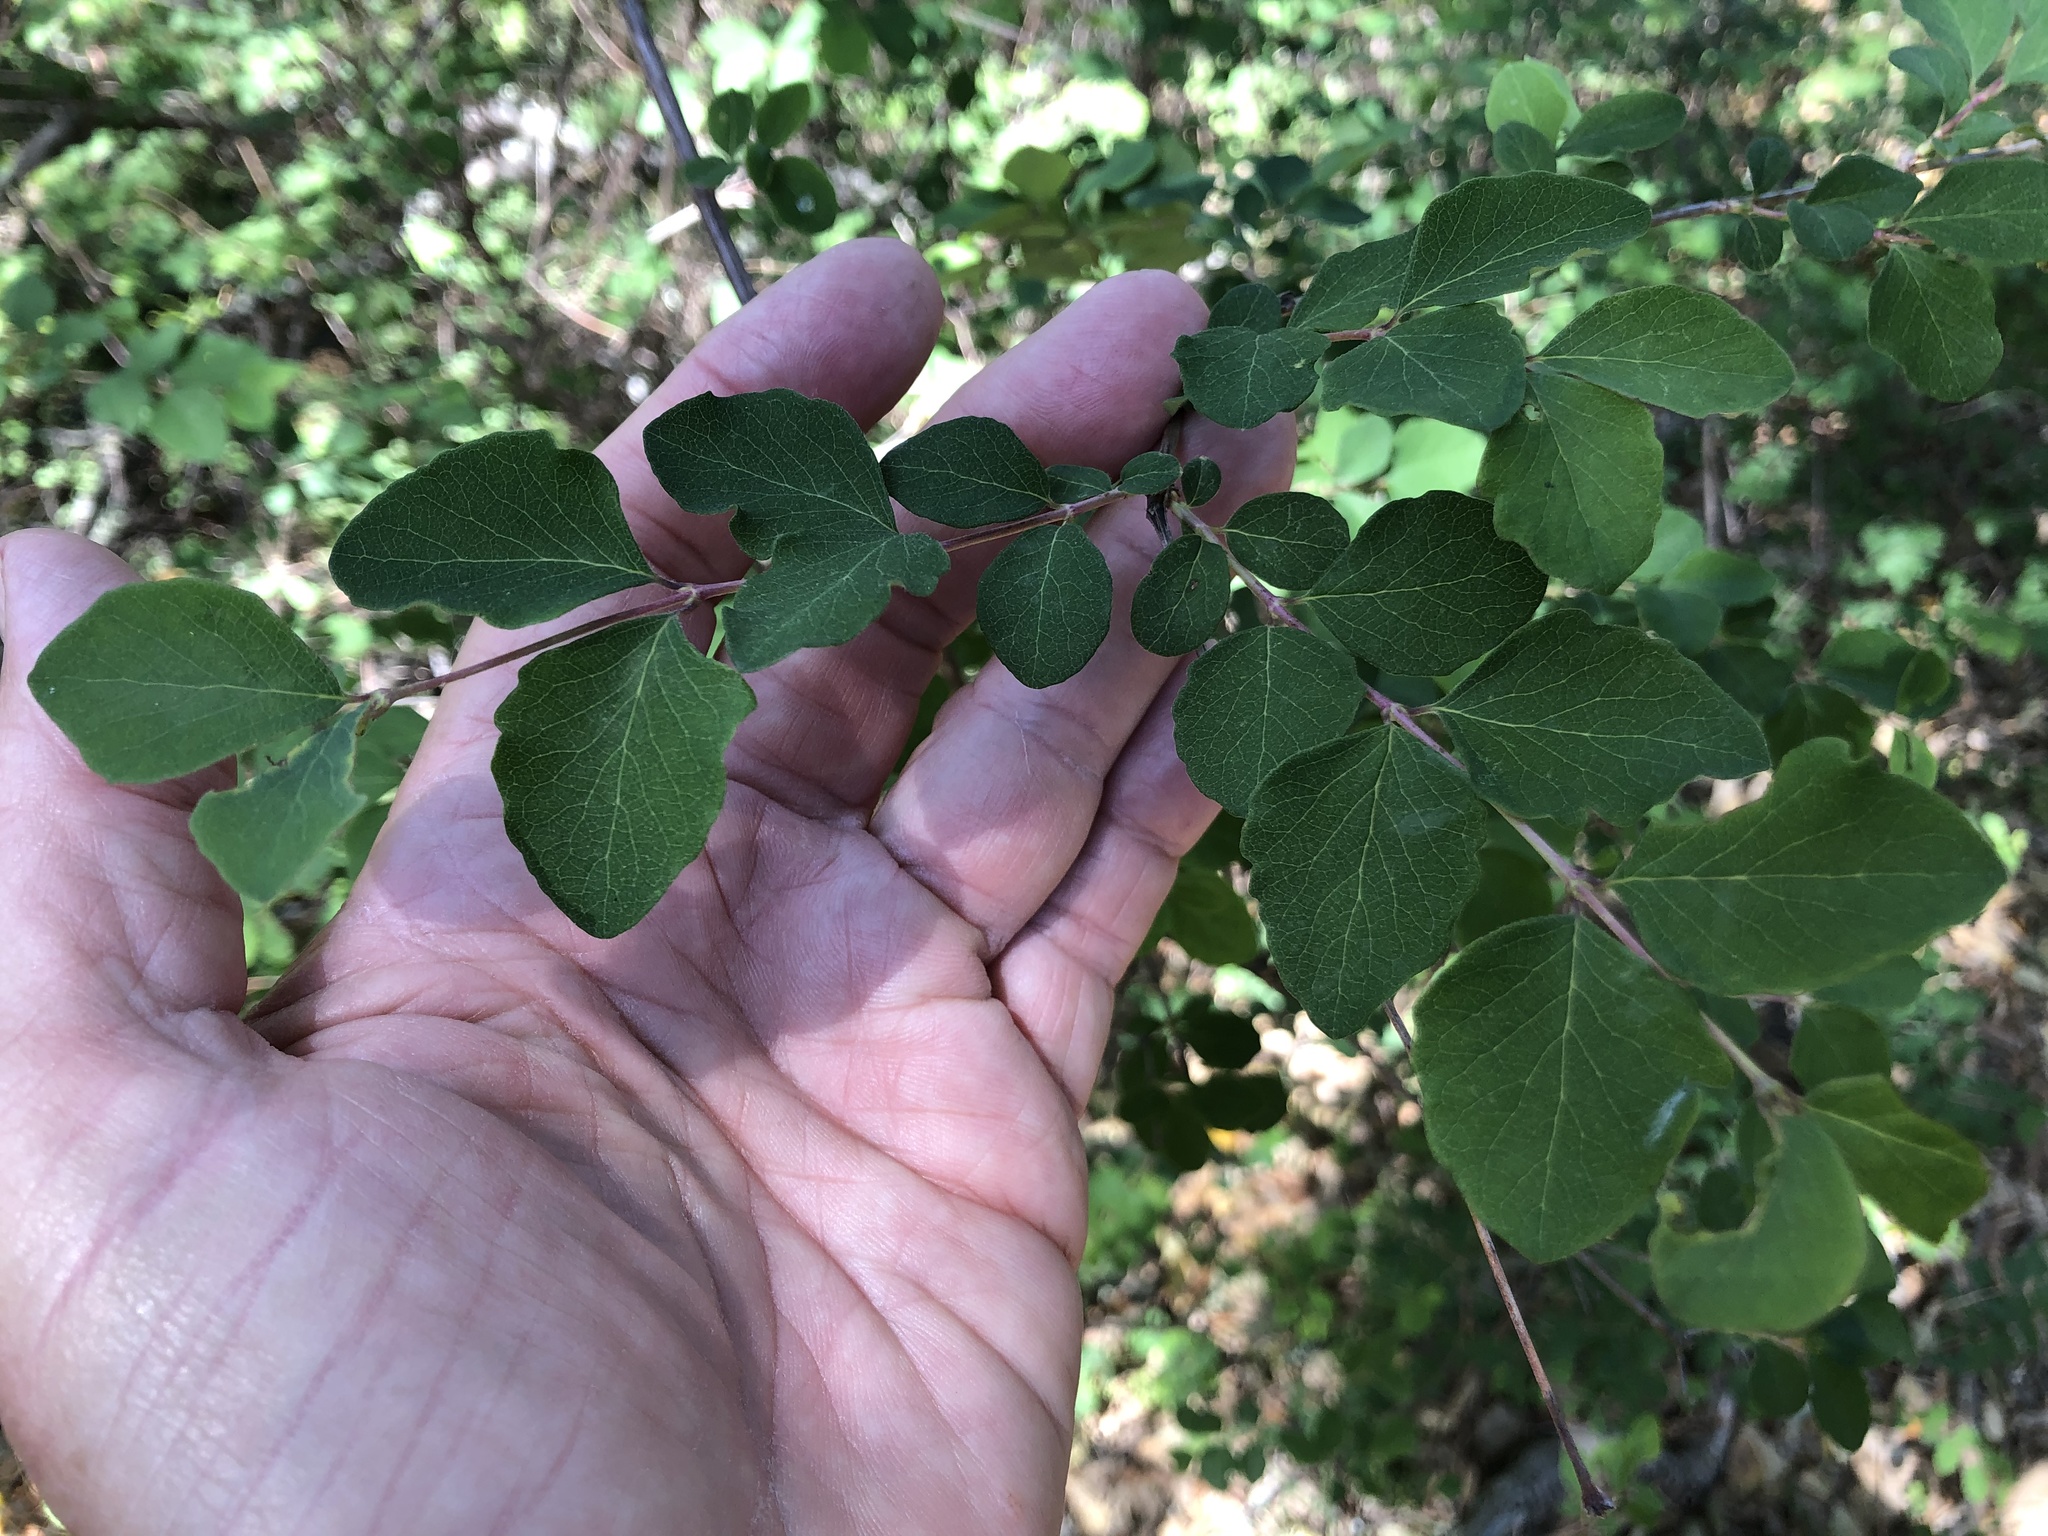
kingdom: Plantae
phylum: Tracheophyta
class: Magnoliopsida
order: Dipsacales
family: Caprifoliaceae
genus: Symphoricarpos
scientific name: Symphoricarpos albus
